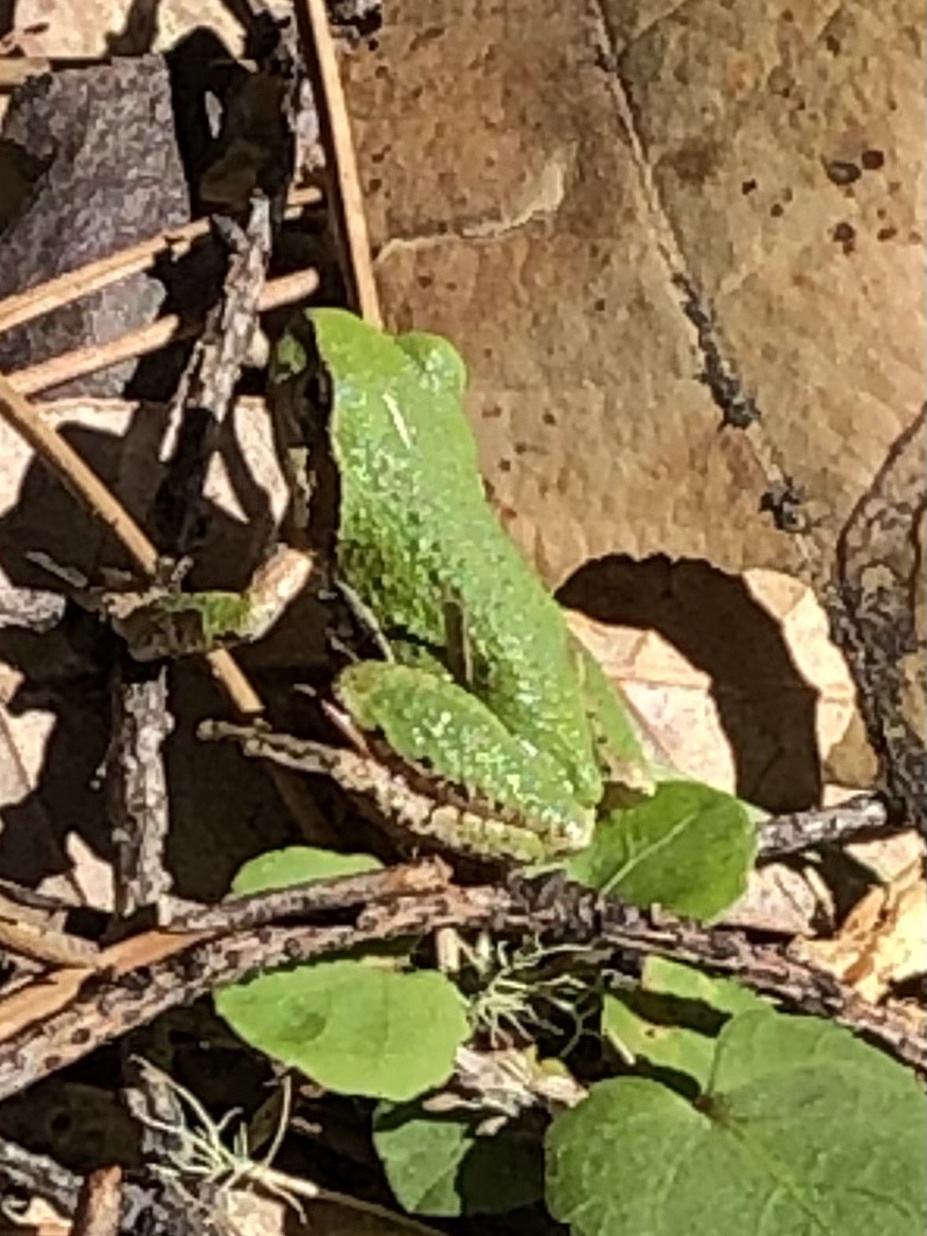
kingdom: Animalia
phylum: Chordata
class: Amphibia
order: Anura
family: Hylidae
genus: Pseudacris
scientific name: Pseudacris regilla
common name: Pacific chorus frog
